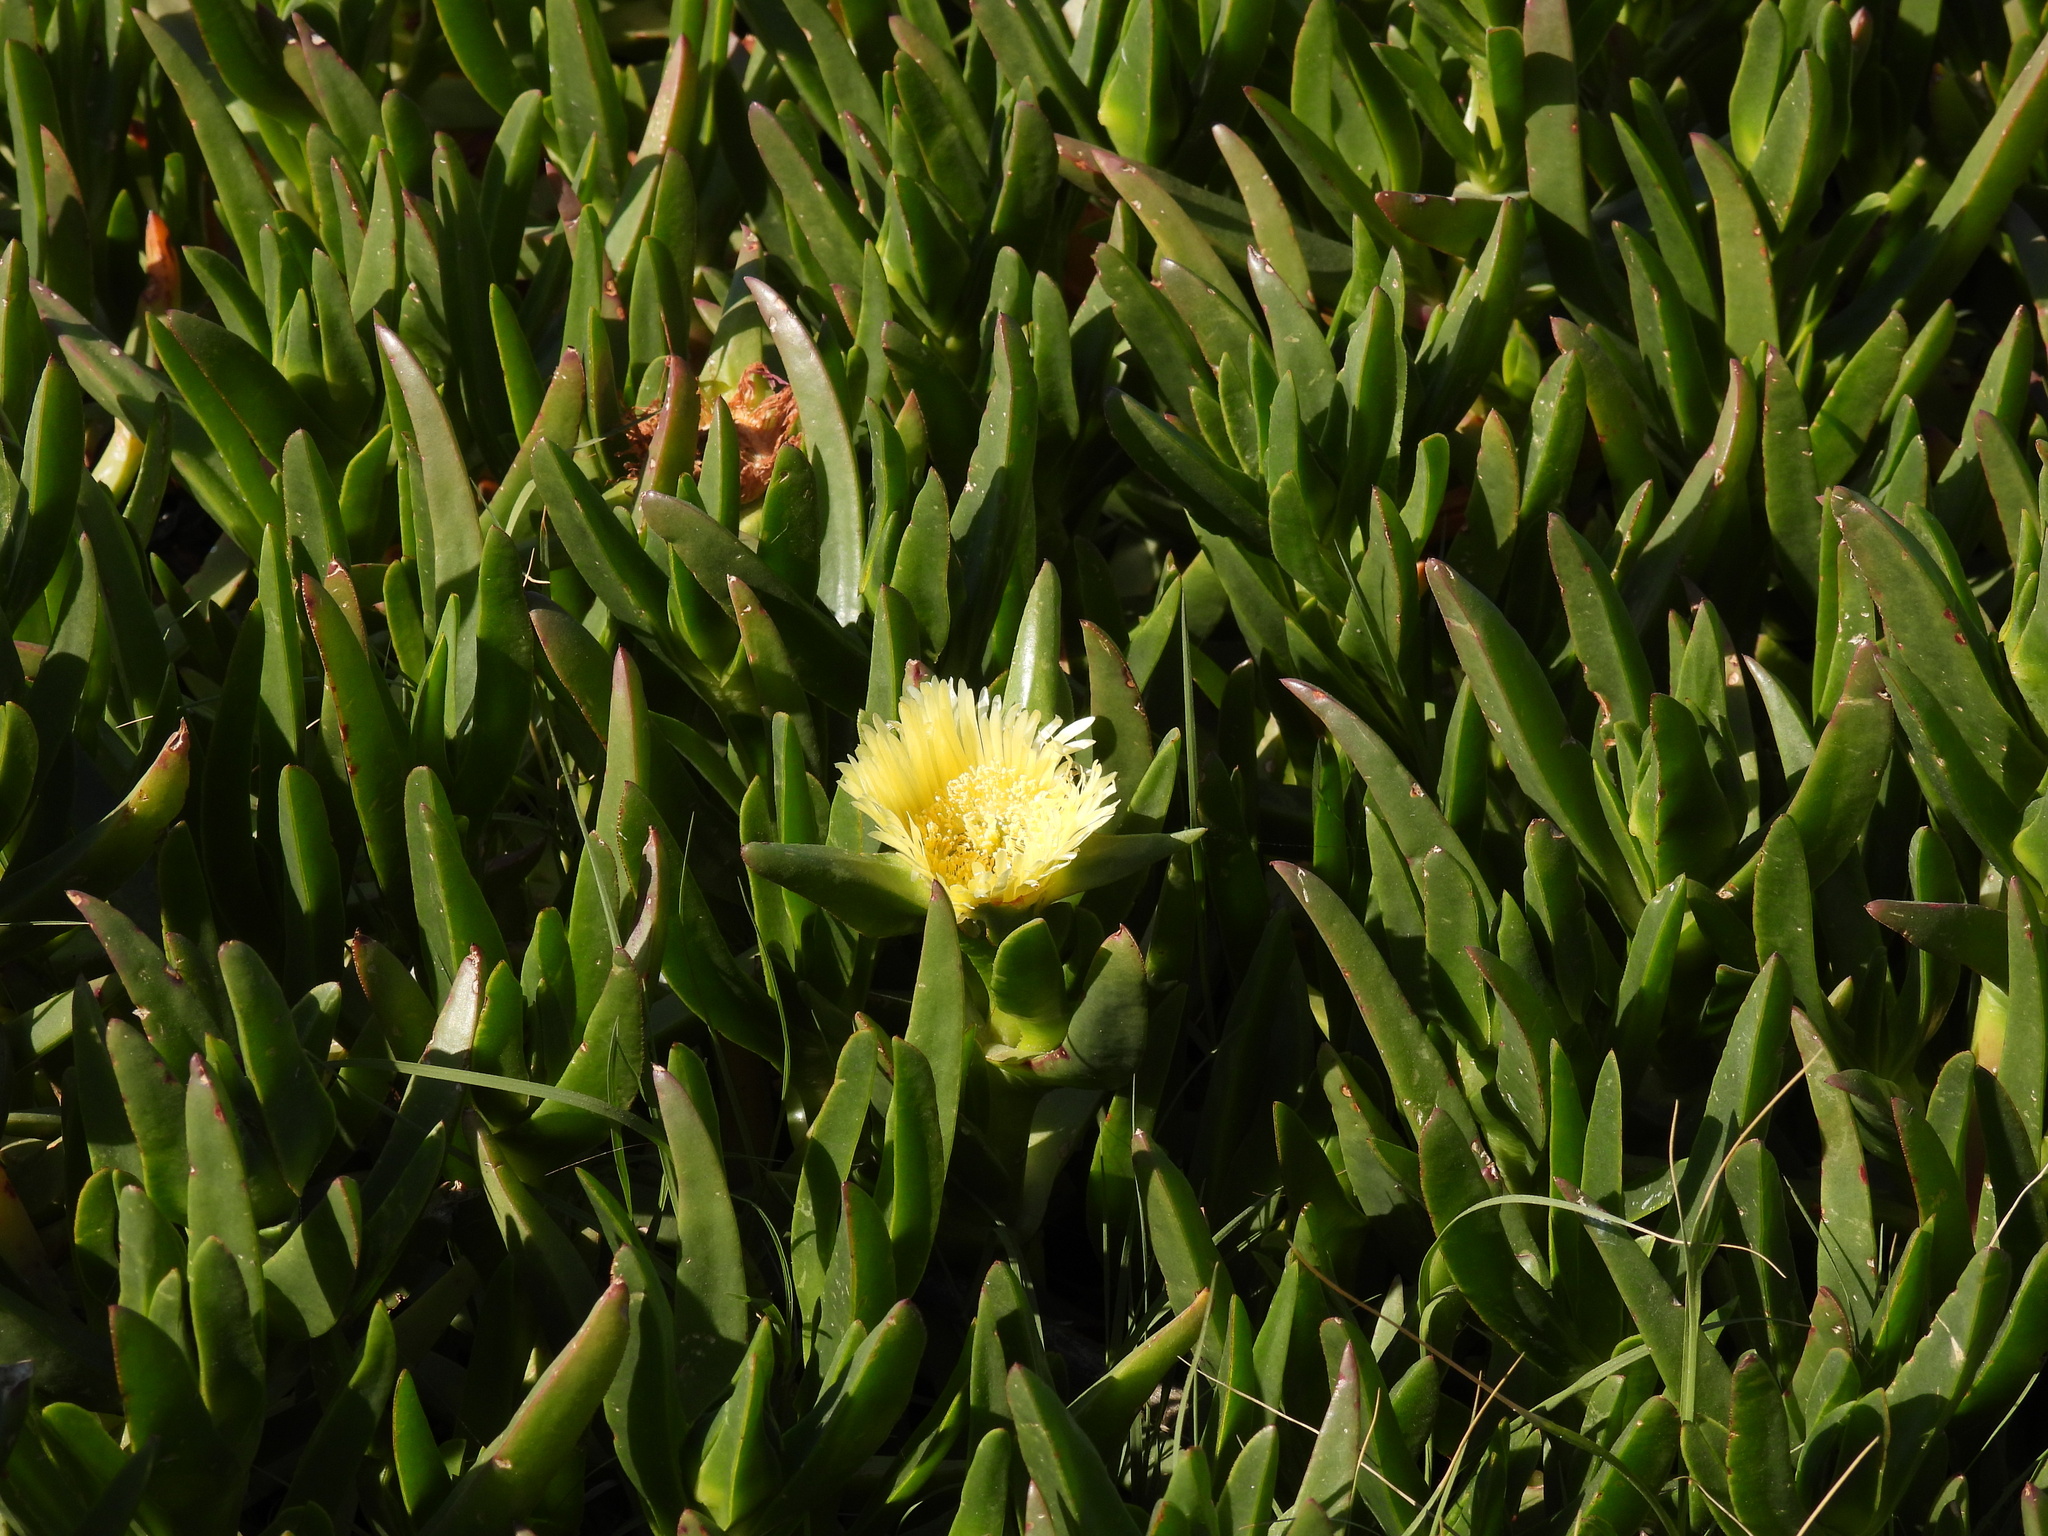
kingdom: Plantae
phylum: Tracheophyta
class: Magnoliopsida
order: Caryophyllales
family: Aizoaceae
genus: Carpobrotus
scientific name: Carpobrotus edulis
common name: Hottentot-fig
